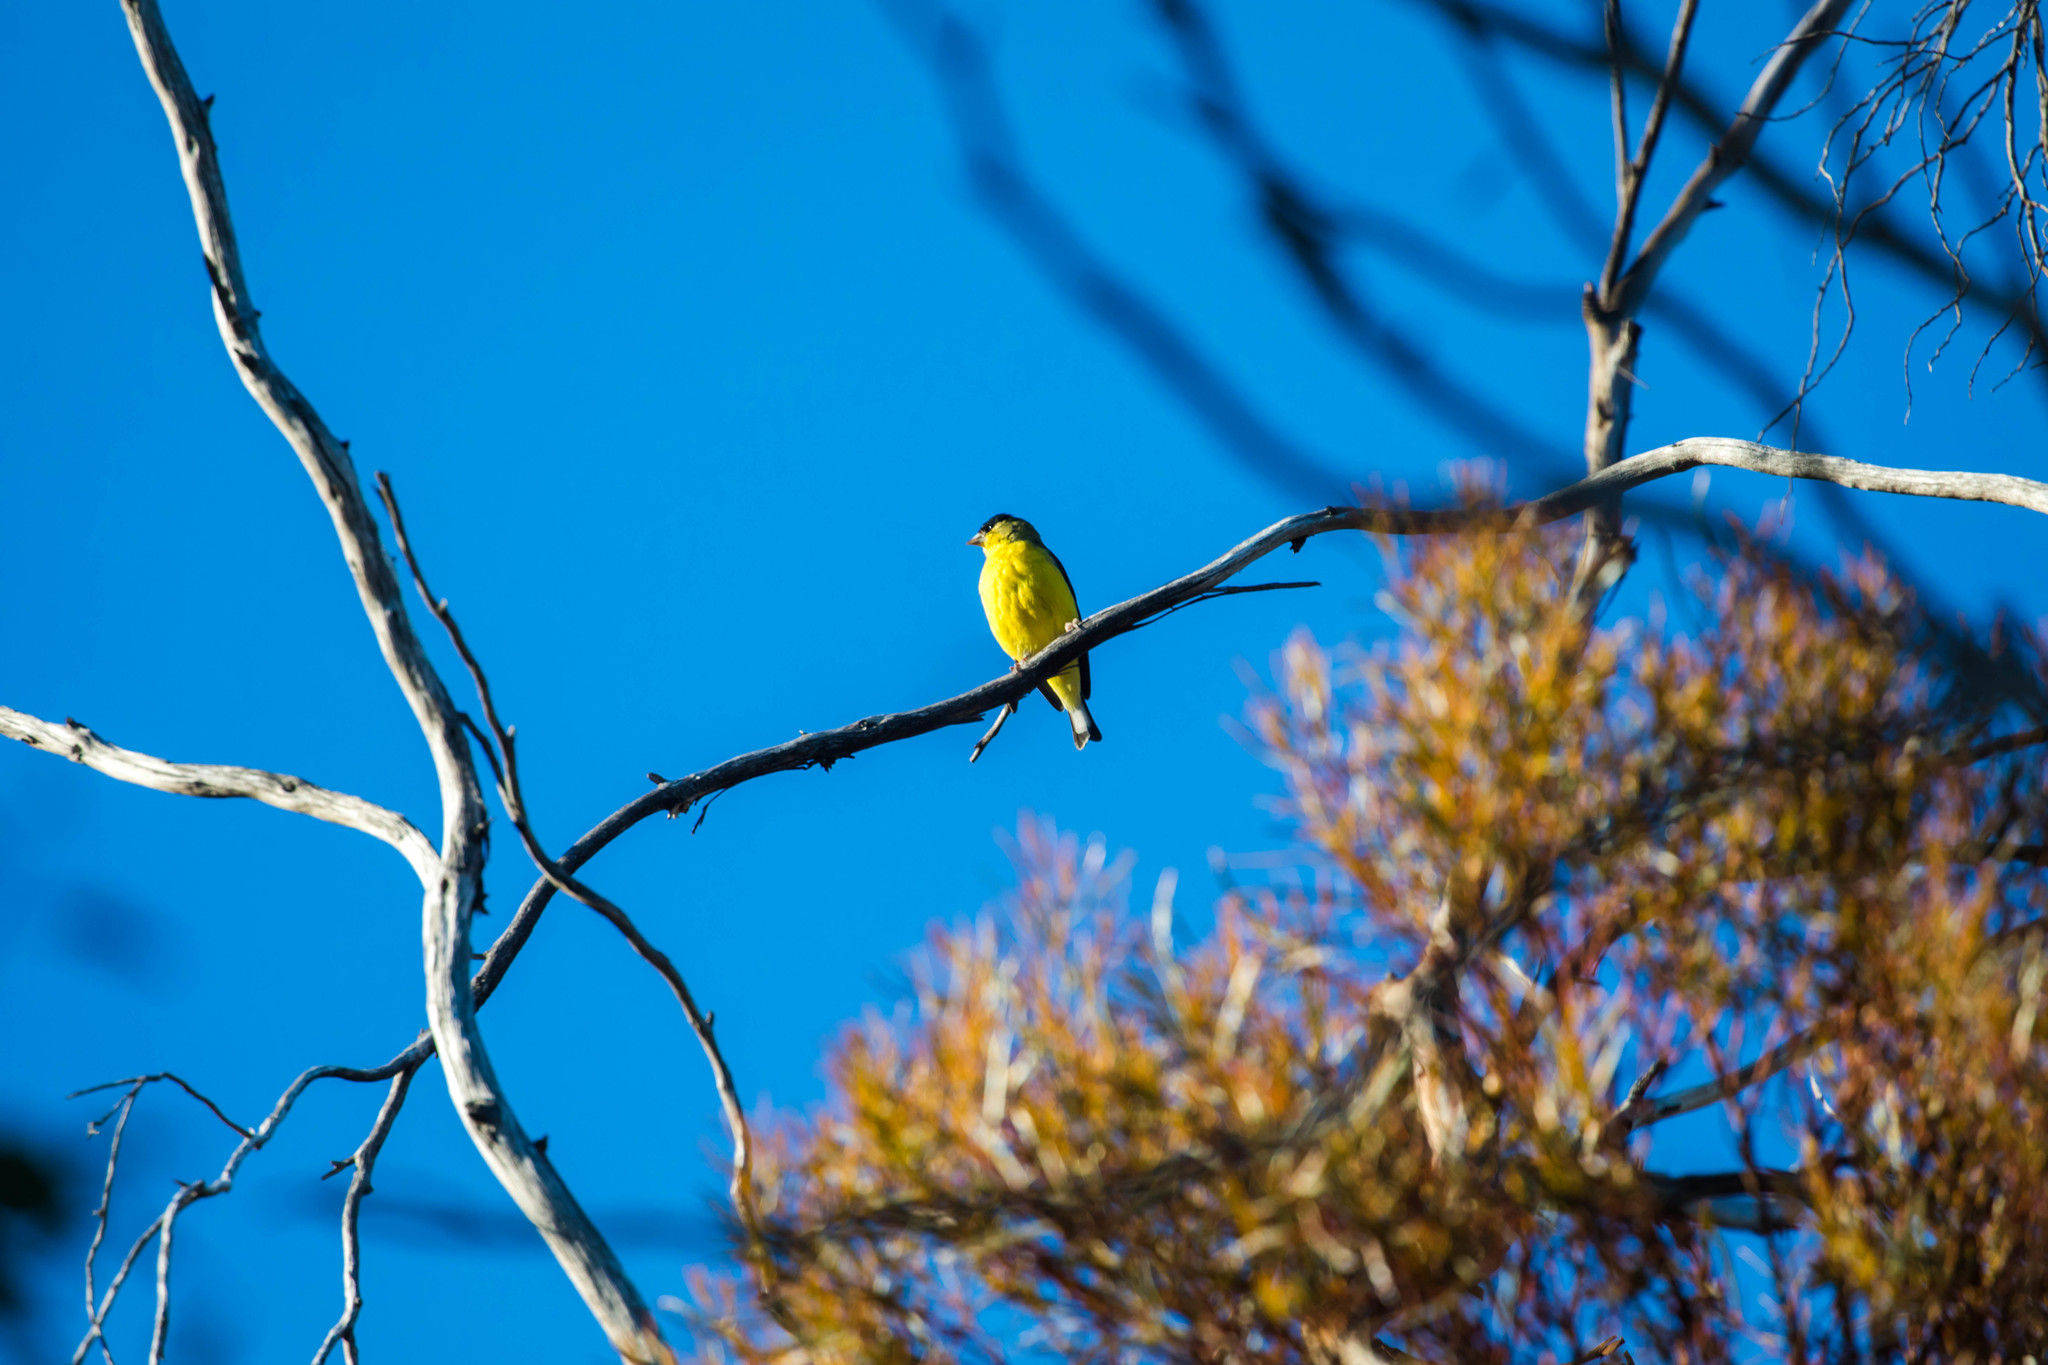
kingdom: Animalia
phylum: Chordata
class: Aves
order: Passeriformes
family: Fringillidae
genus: Spinus
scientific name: Spinus psaltria
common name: Lesser goldfinch
